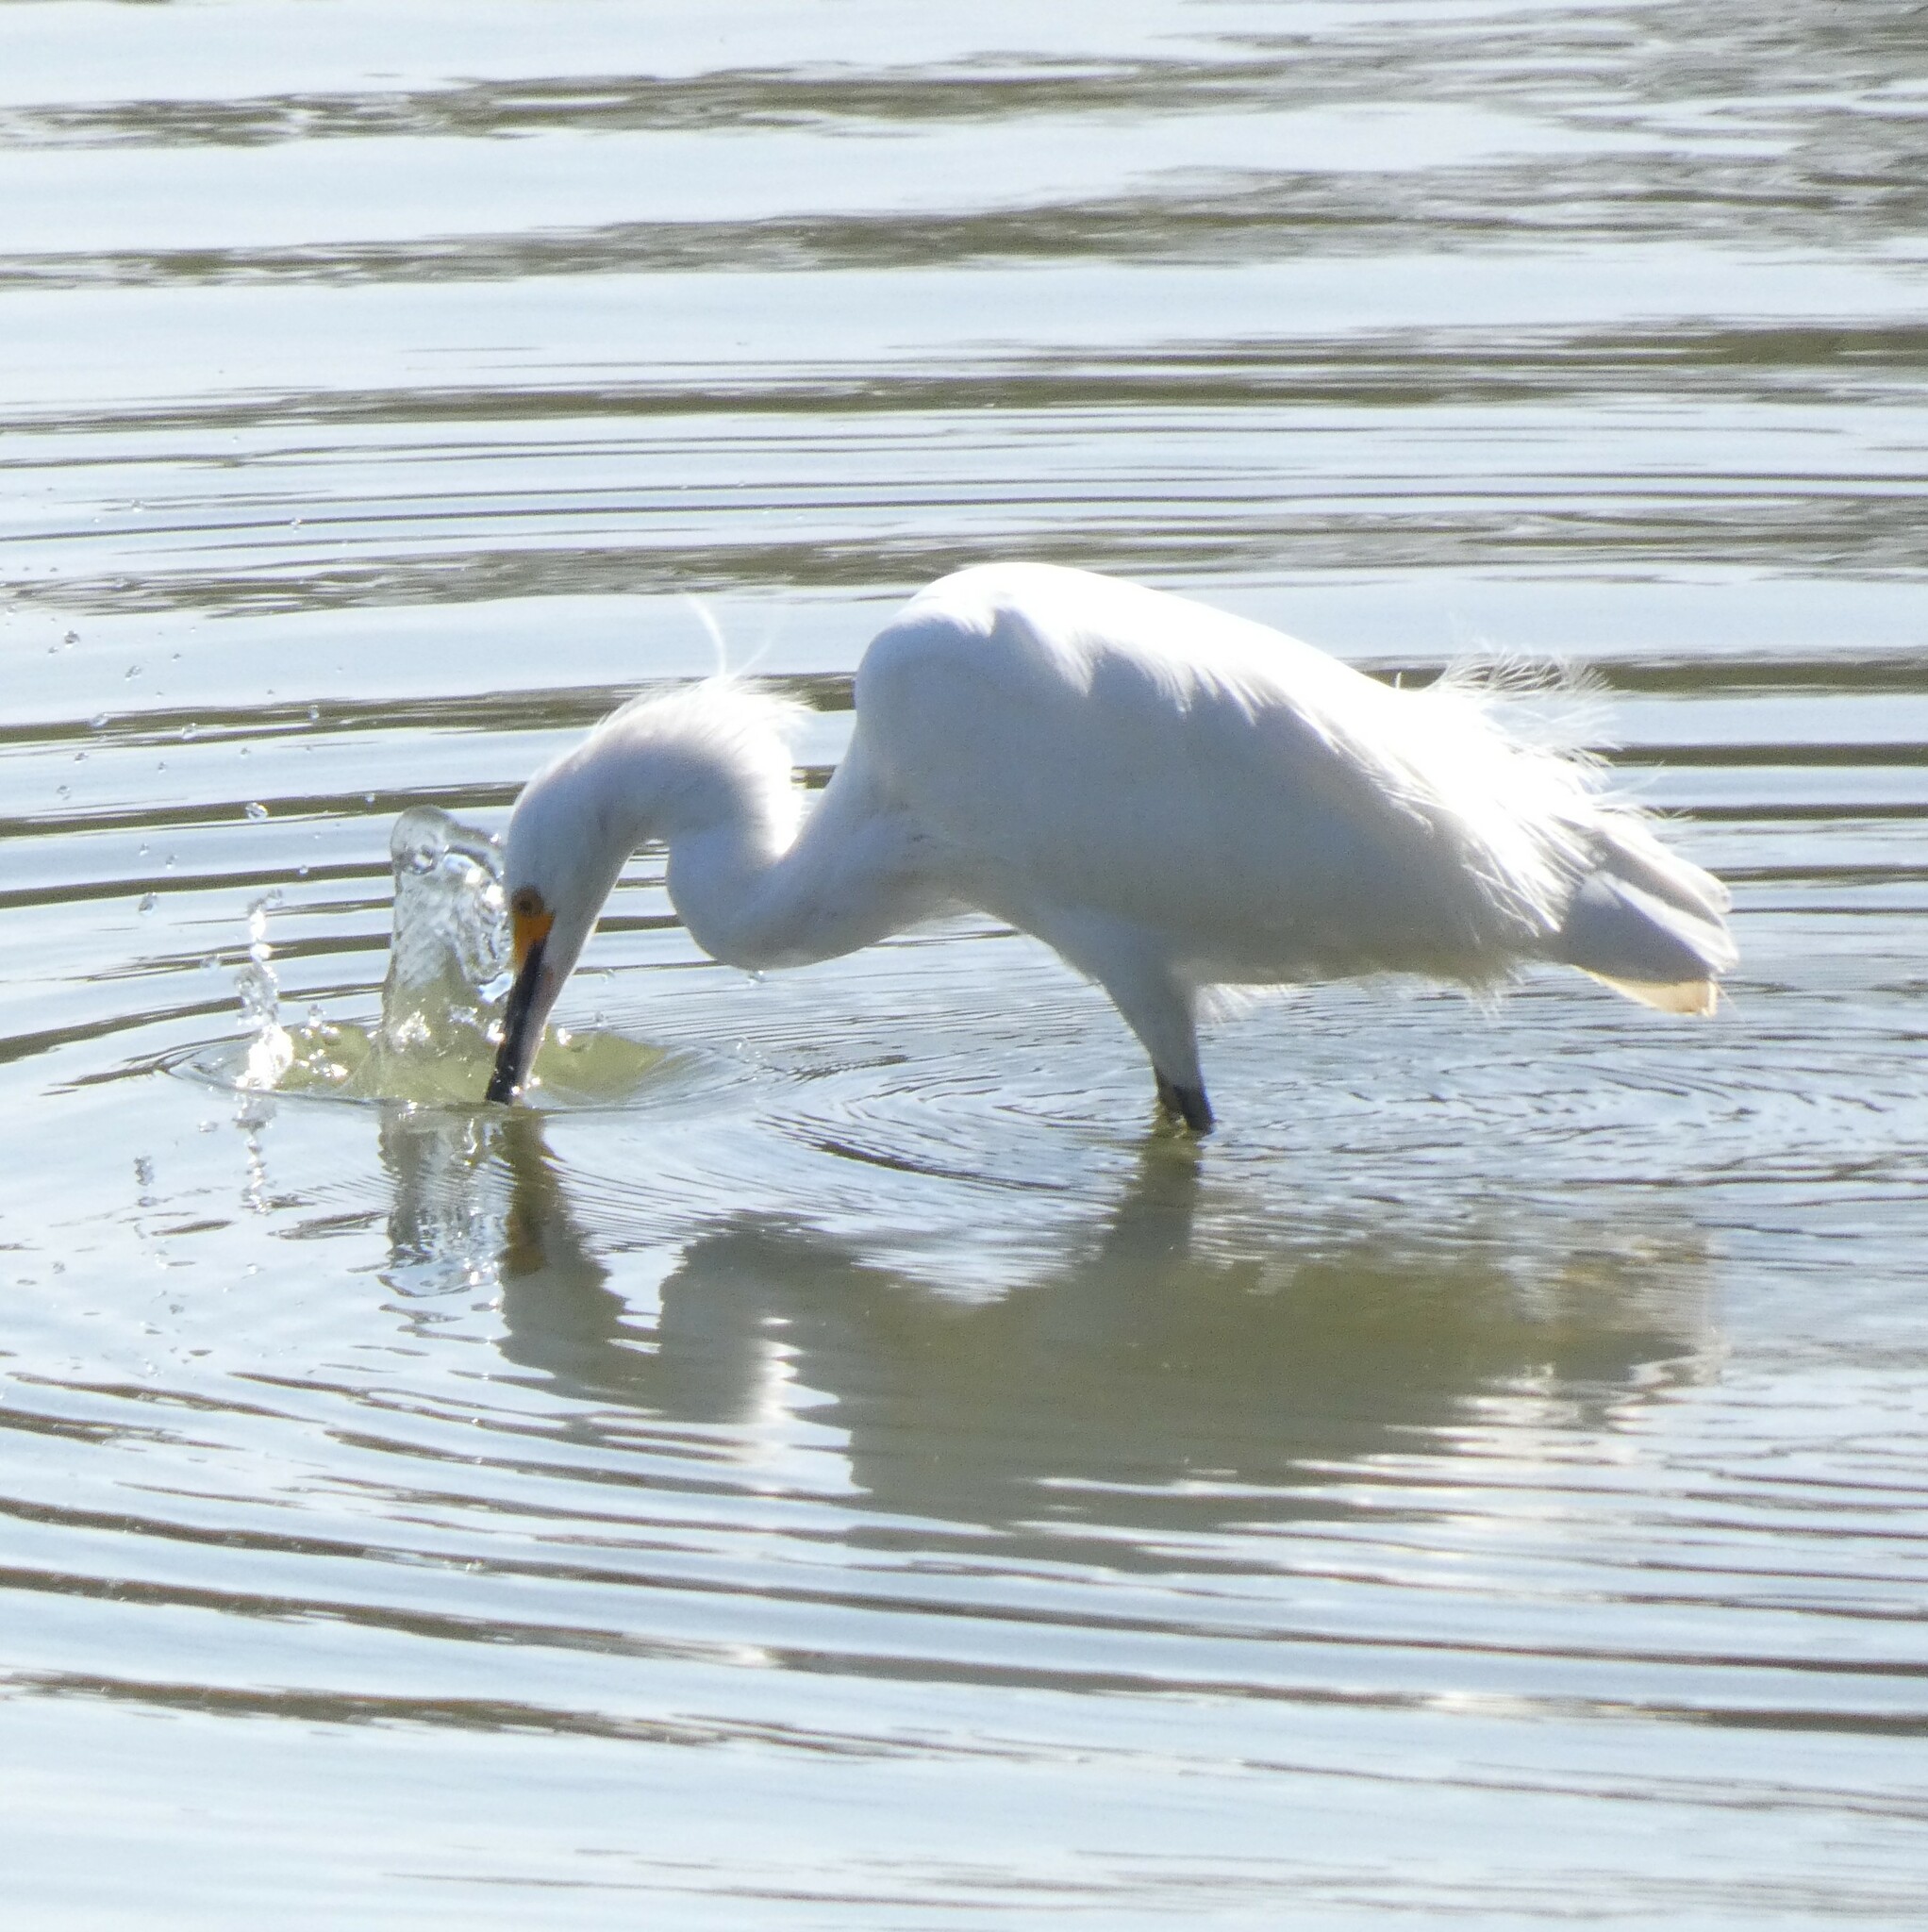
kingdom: Animalia
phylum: Chordata
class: Aves
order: Pelecaniformes
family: Ardeidae
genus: Egretta
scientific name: Egretta thula
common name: Snowy egret
